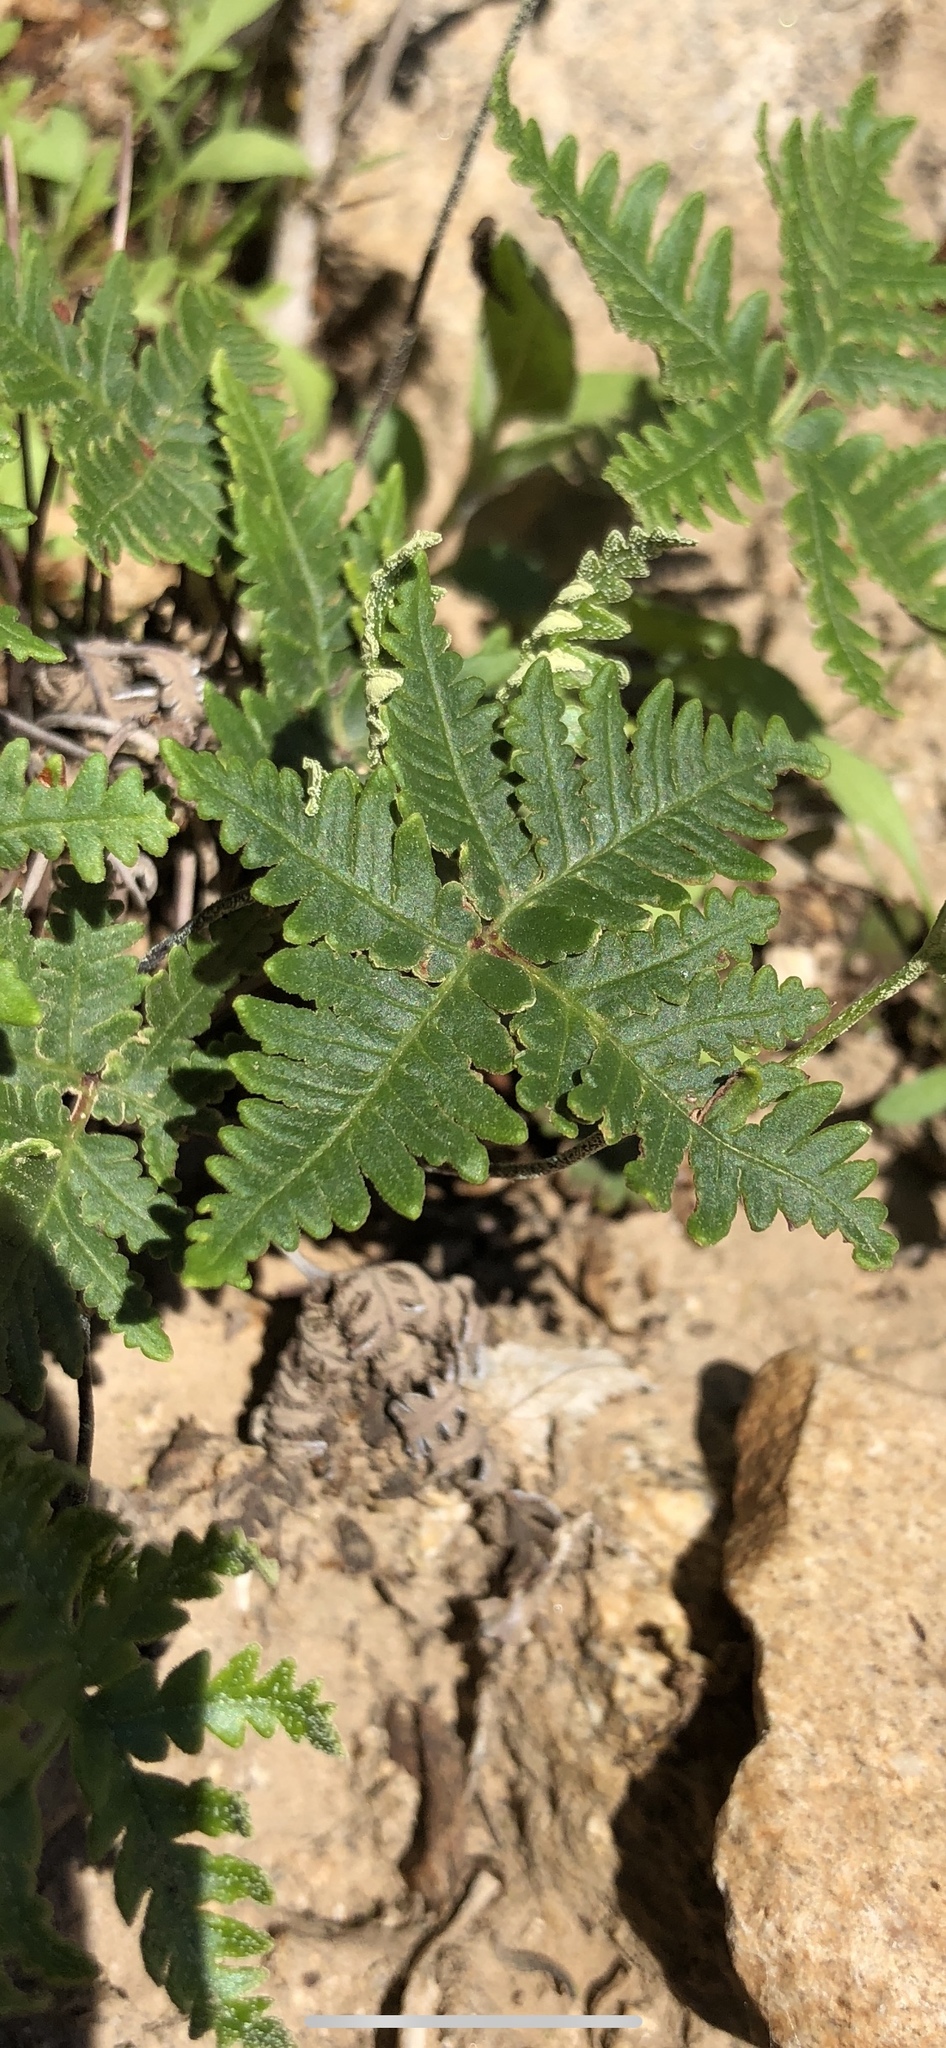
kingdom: Plantae
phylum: Tracheophyta
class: Polypodiopsida
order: Polypodiales
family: Pteridaceae
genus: Notholaena
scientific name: Notholaena standleyi
